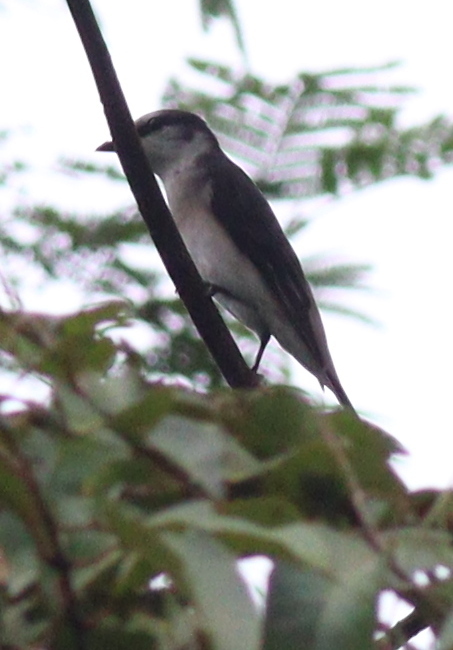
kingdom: Animalia
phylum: Chordata
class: Aves
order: Passeriformes
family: Campephagidae
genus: Pericrocotus
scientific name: Pericrocotus divaricatus
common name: Ashy minivet
